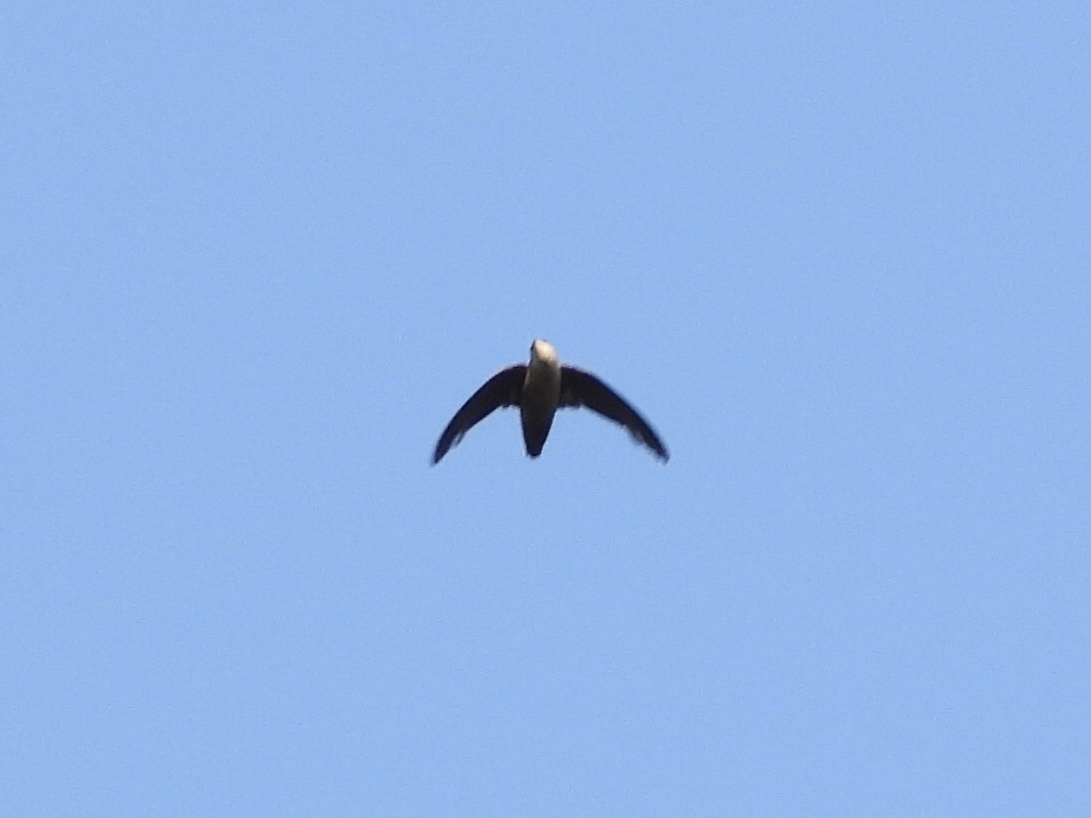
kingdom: Animalia
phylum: Chordata
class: Aves
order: Apodiformes
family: Apodidae
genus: Chaetura
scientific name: Chaetura vauxi
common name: Vaux's swift
